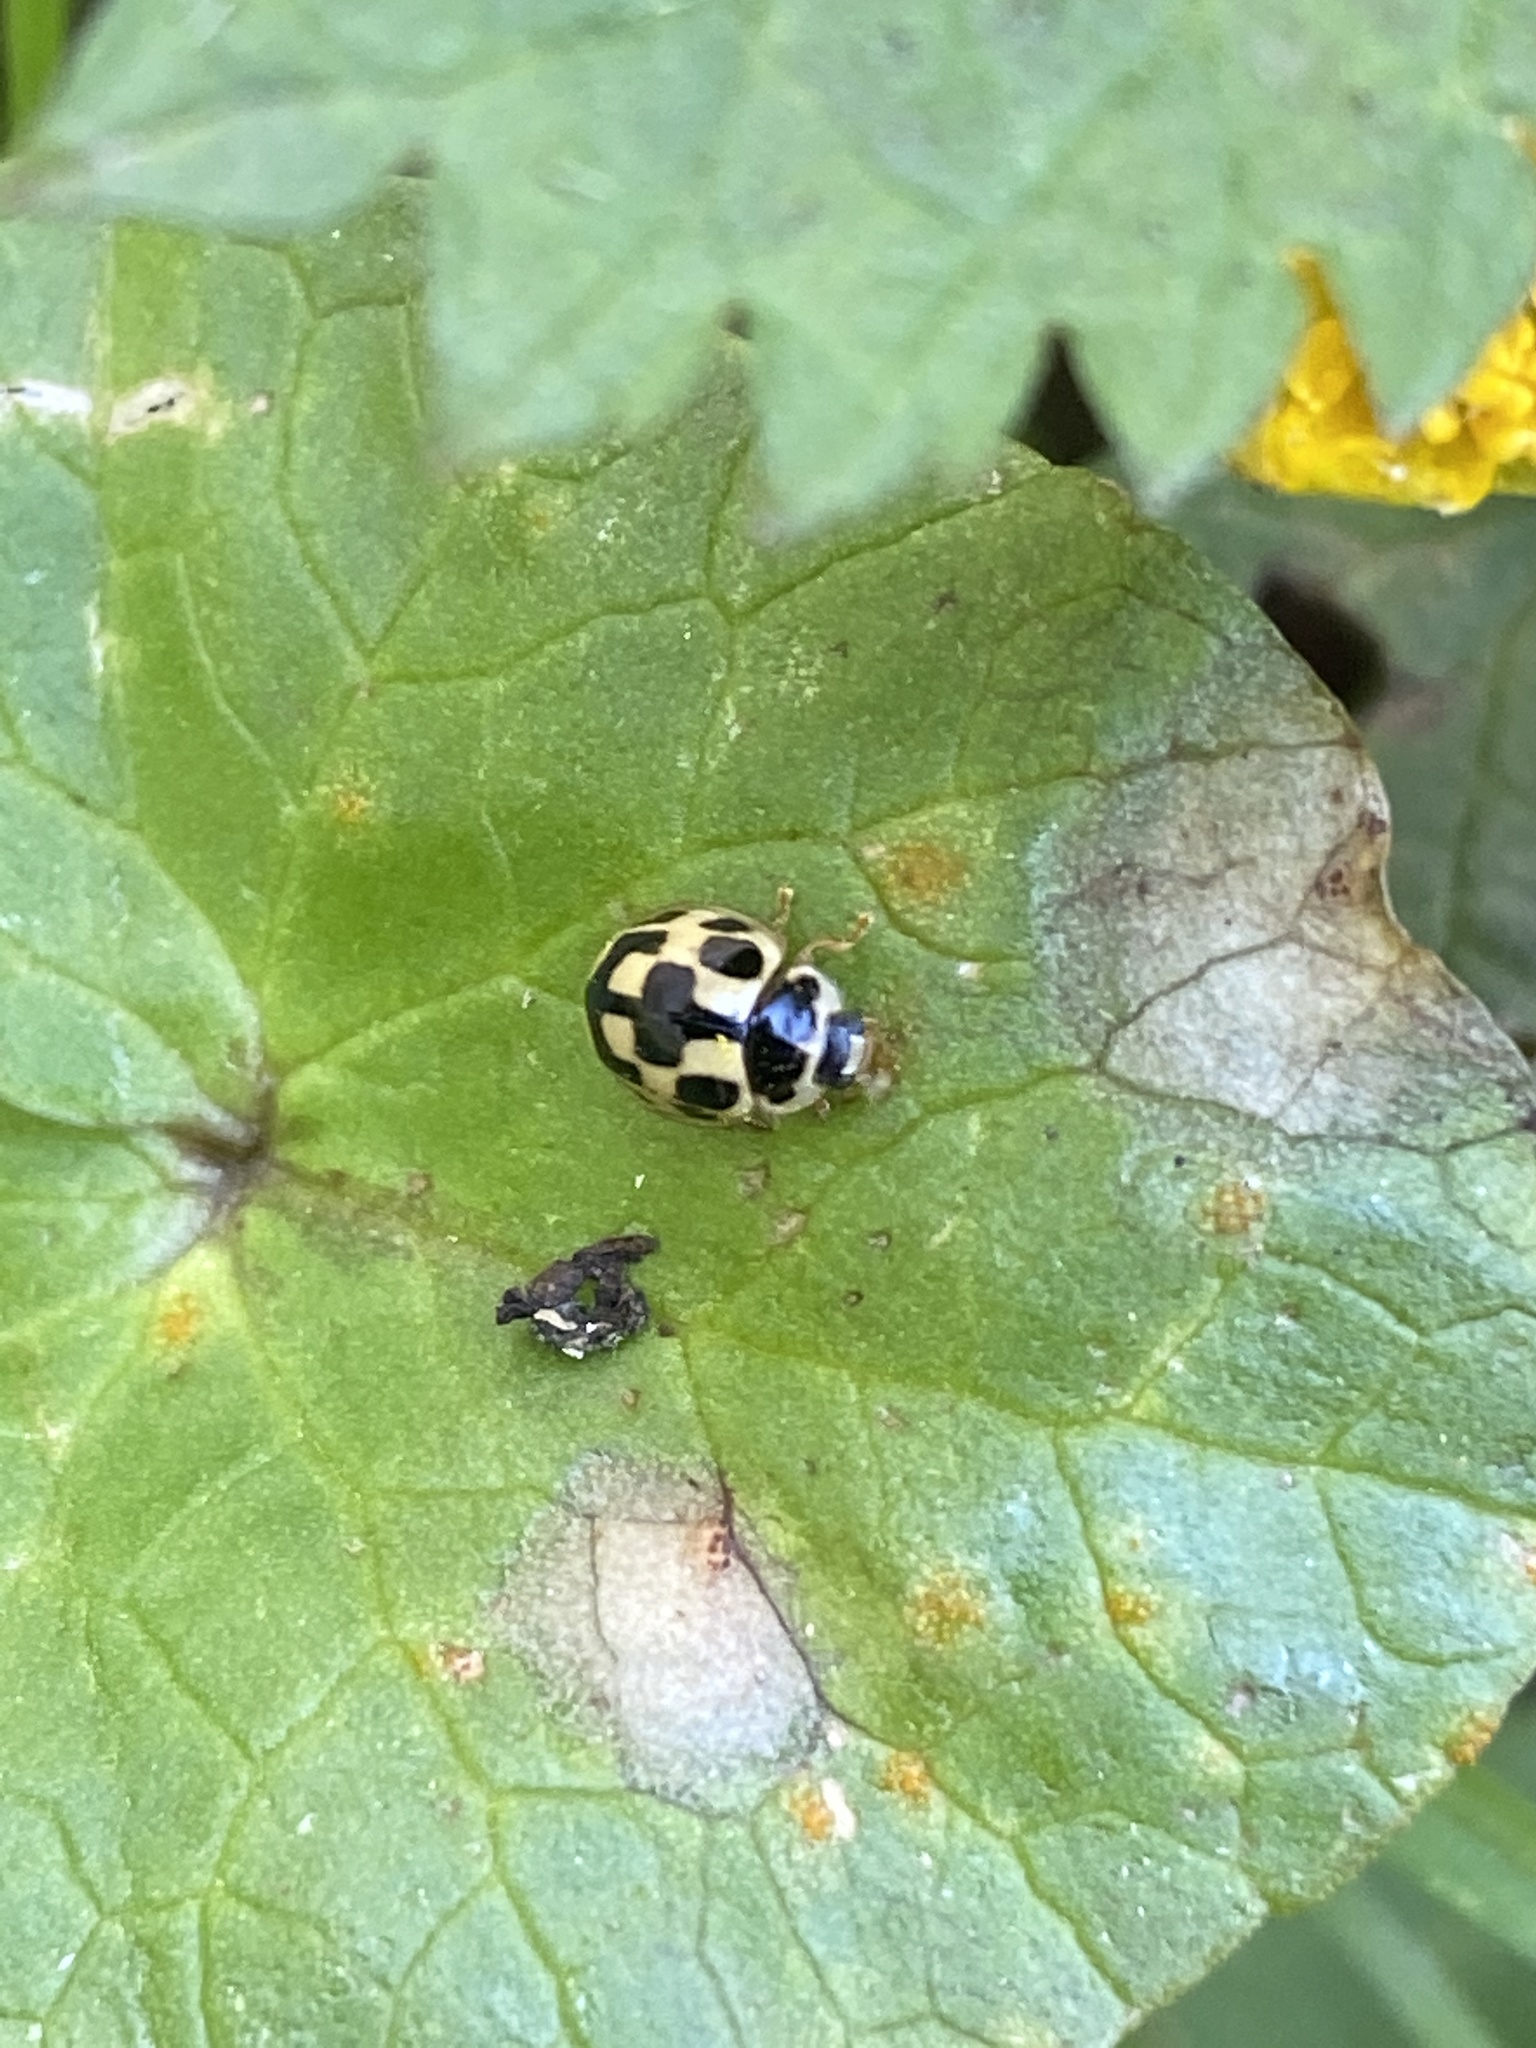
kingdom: Animalia
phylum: Arthropoda
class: Insecta
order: Coleoptera
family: Coccinellidae
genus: Propylaea
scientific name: Propylaea quatuordecimpunctata
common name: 14-spotted ladybird beetle
